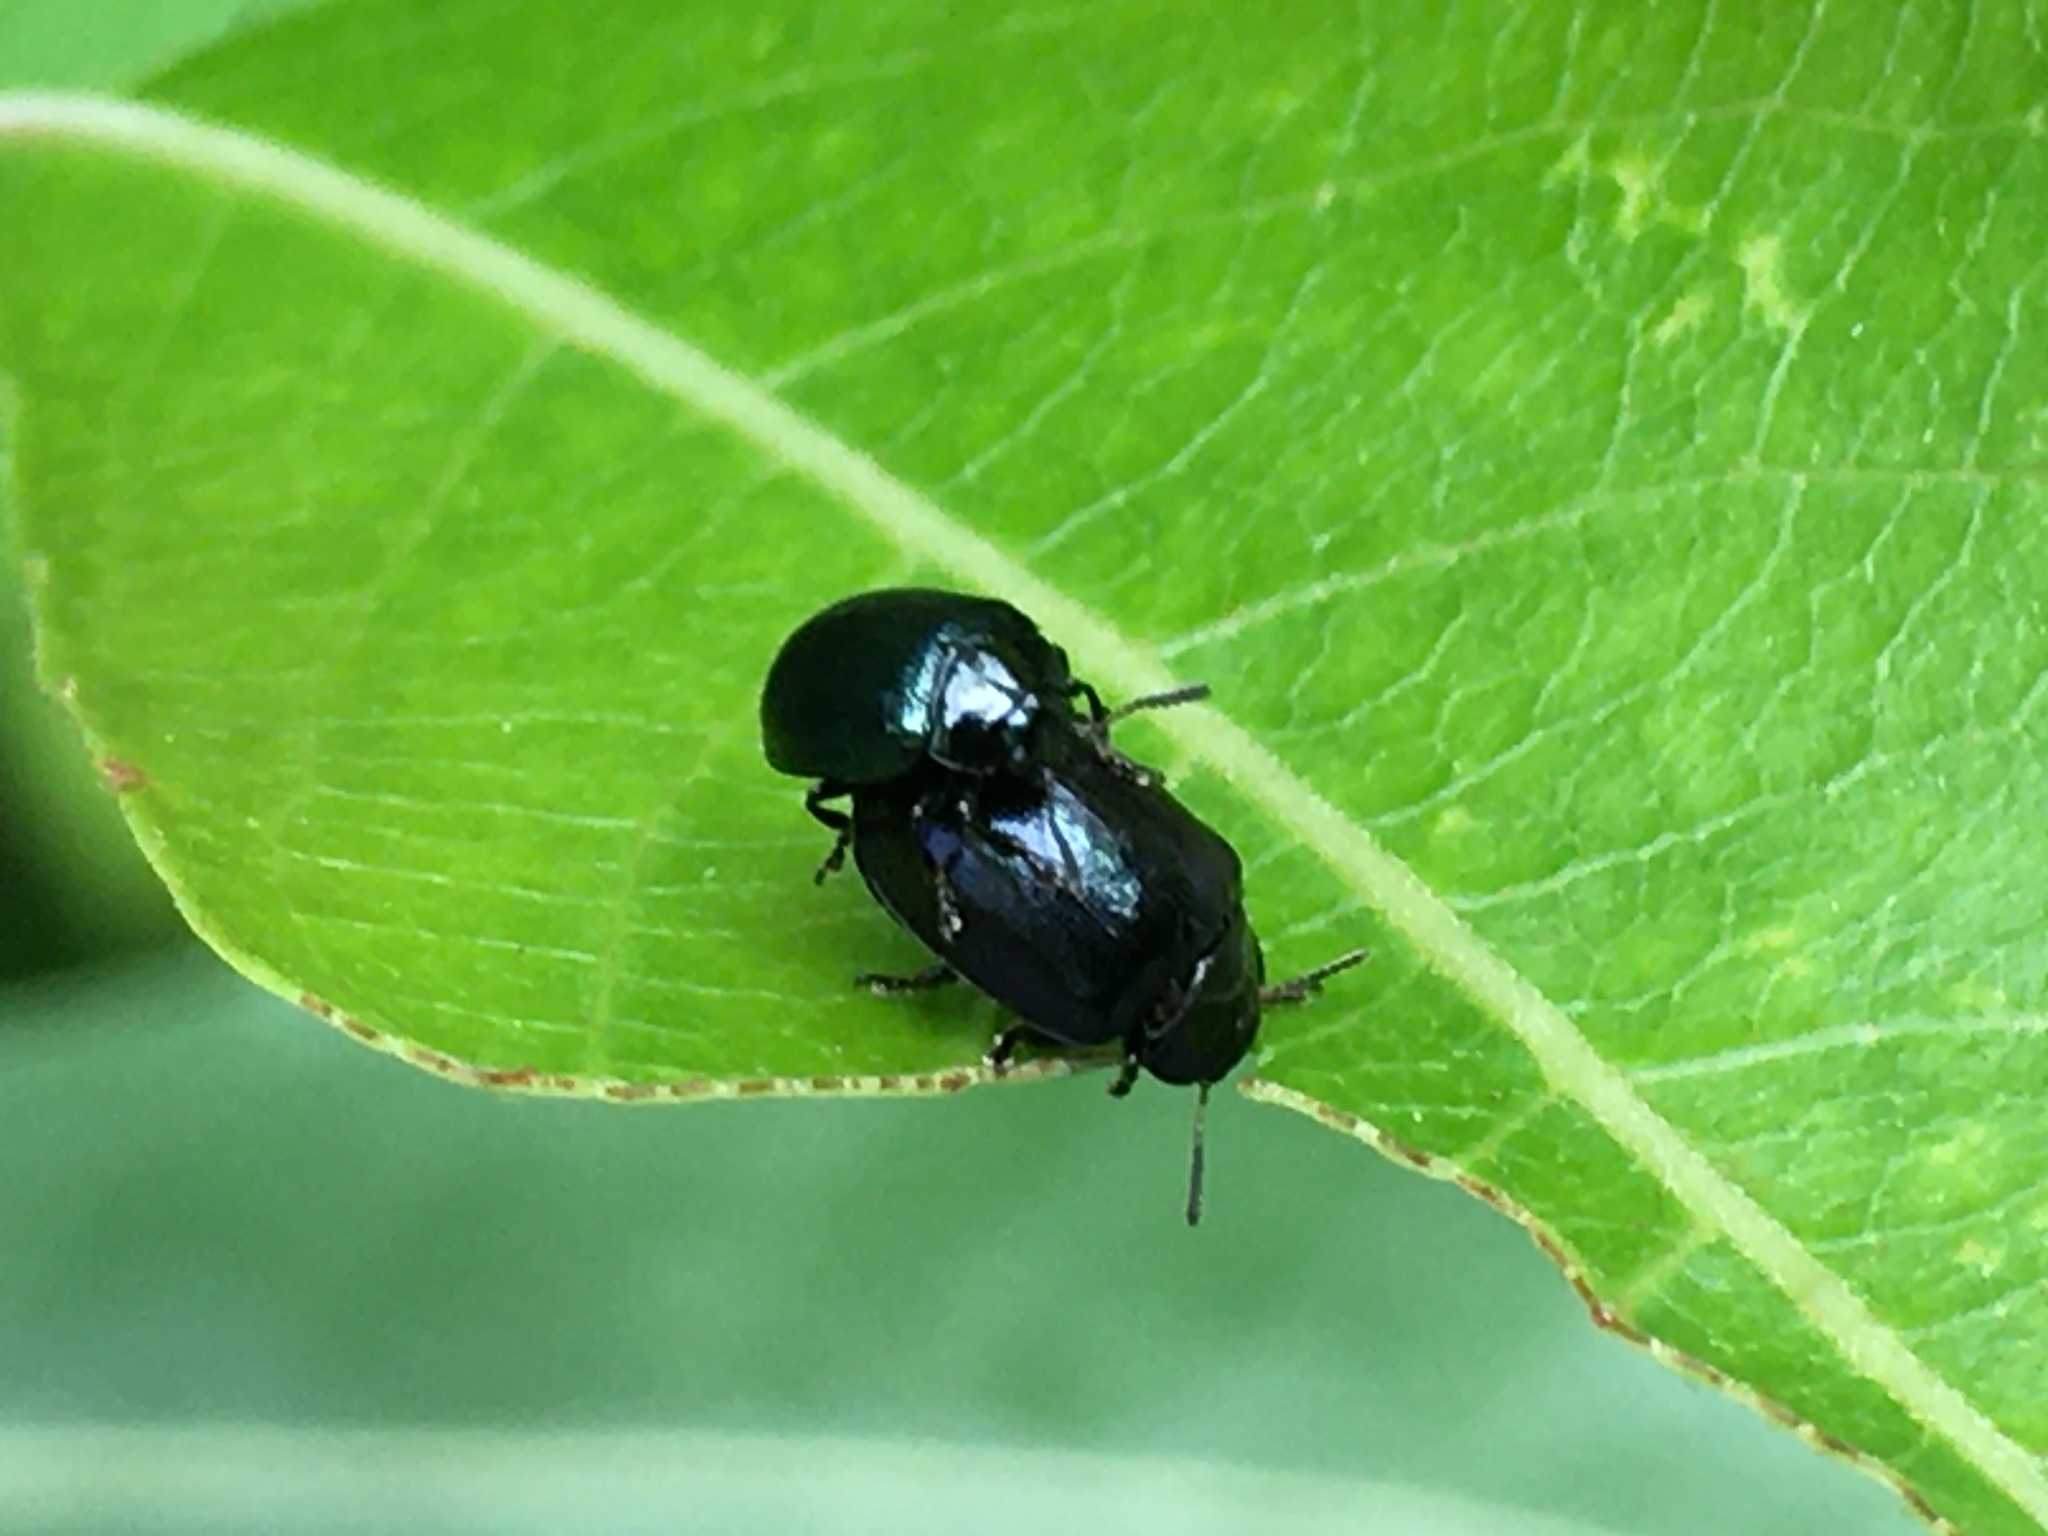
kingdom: Animalia
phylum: Arthropoda
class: Insecta
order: Coleoptera
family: Chrysomelidae
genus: Plagiodera
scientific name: Plagiodera versicolora
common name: Imported willow leaf beetle
